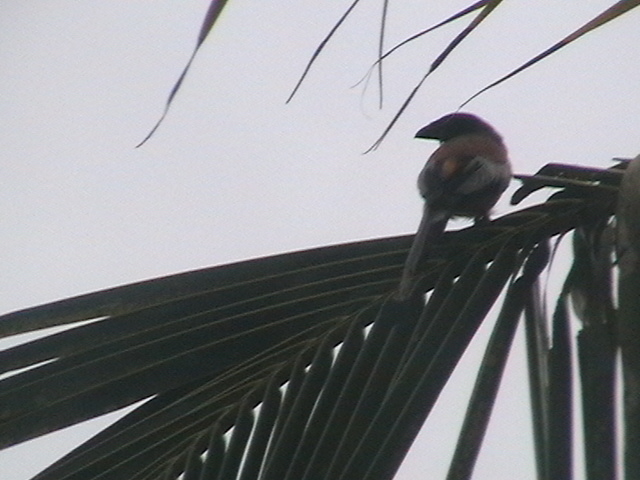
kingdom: Animalia
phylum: Chordata
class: Aves
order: Passeriformes
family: Corvidae
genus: Dendrocitta
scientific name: Dendrocitta vagabunda
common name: Rufous treepie
